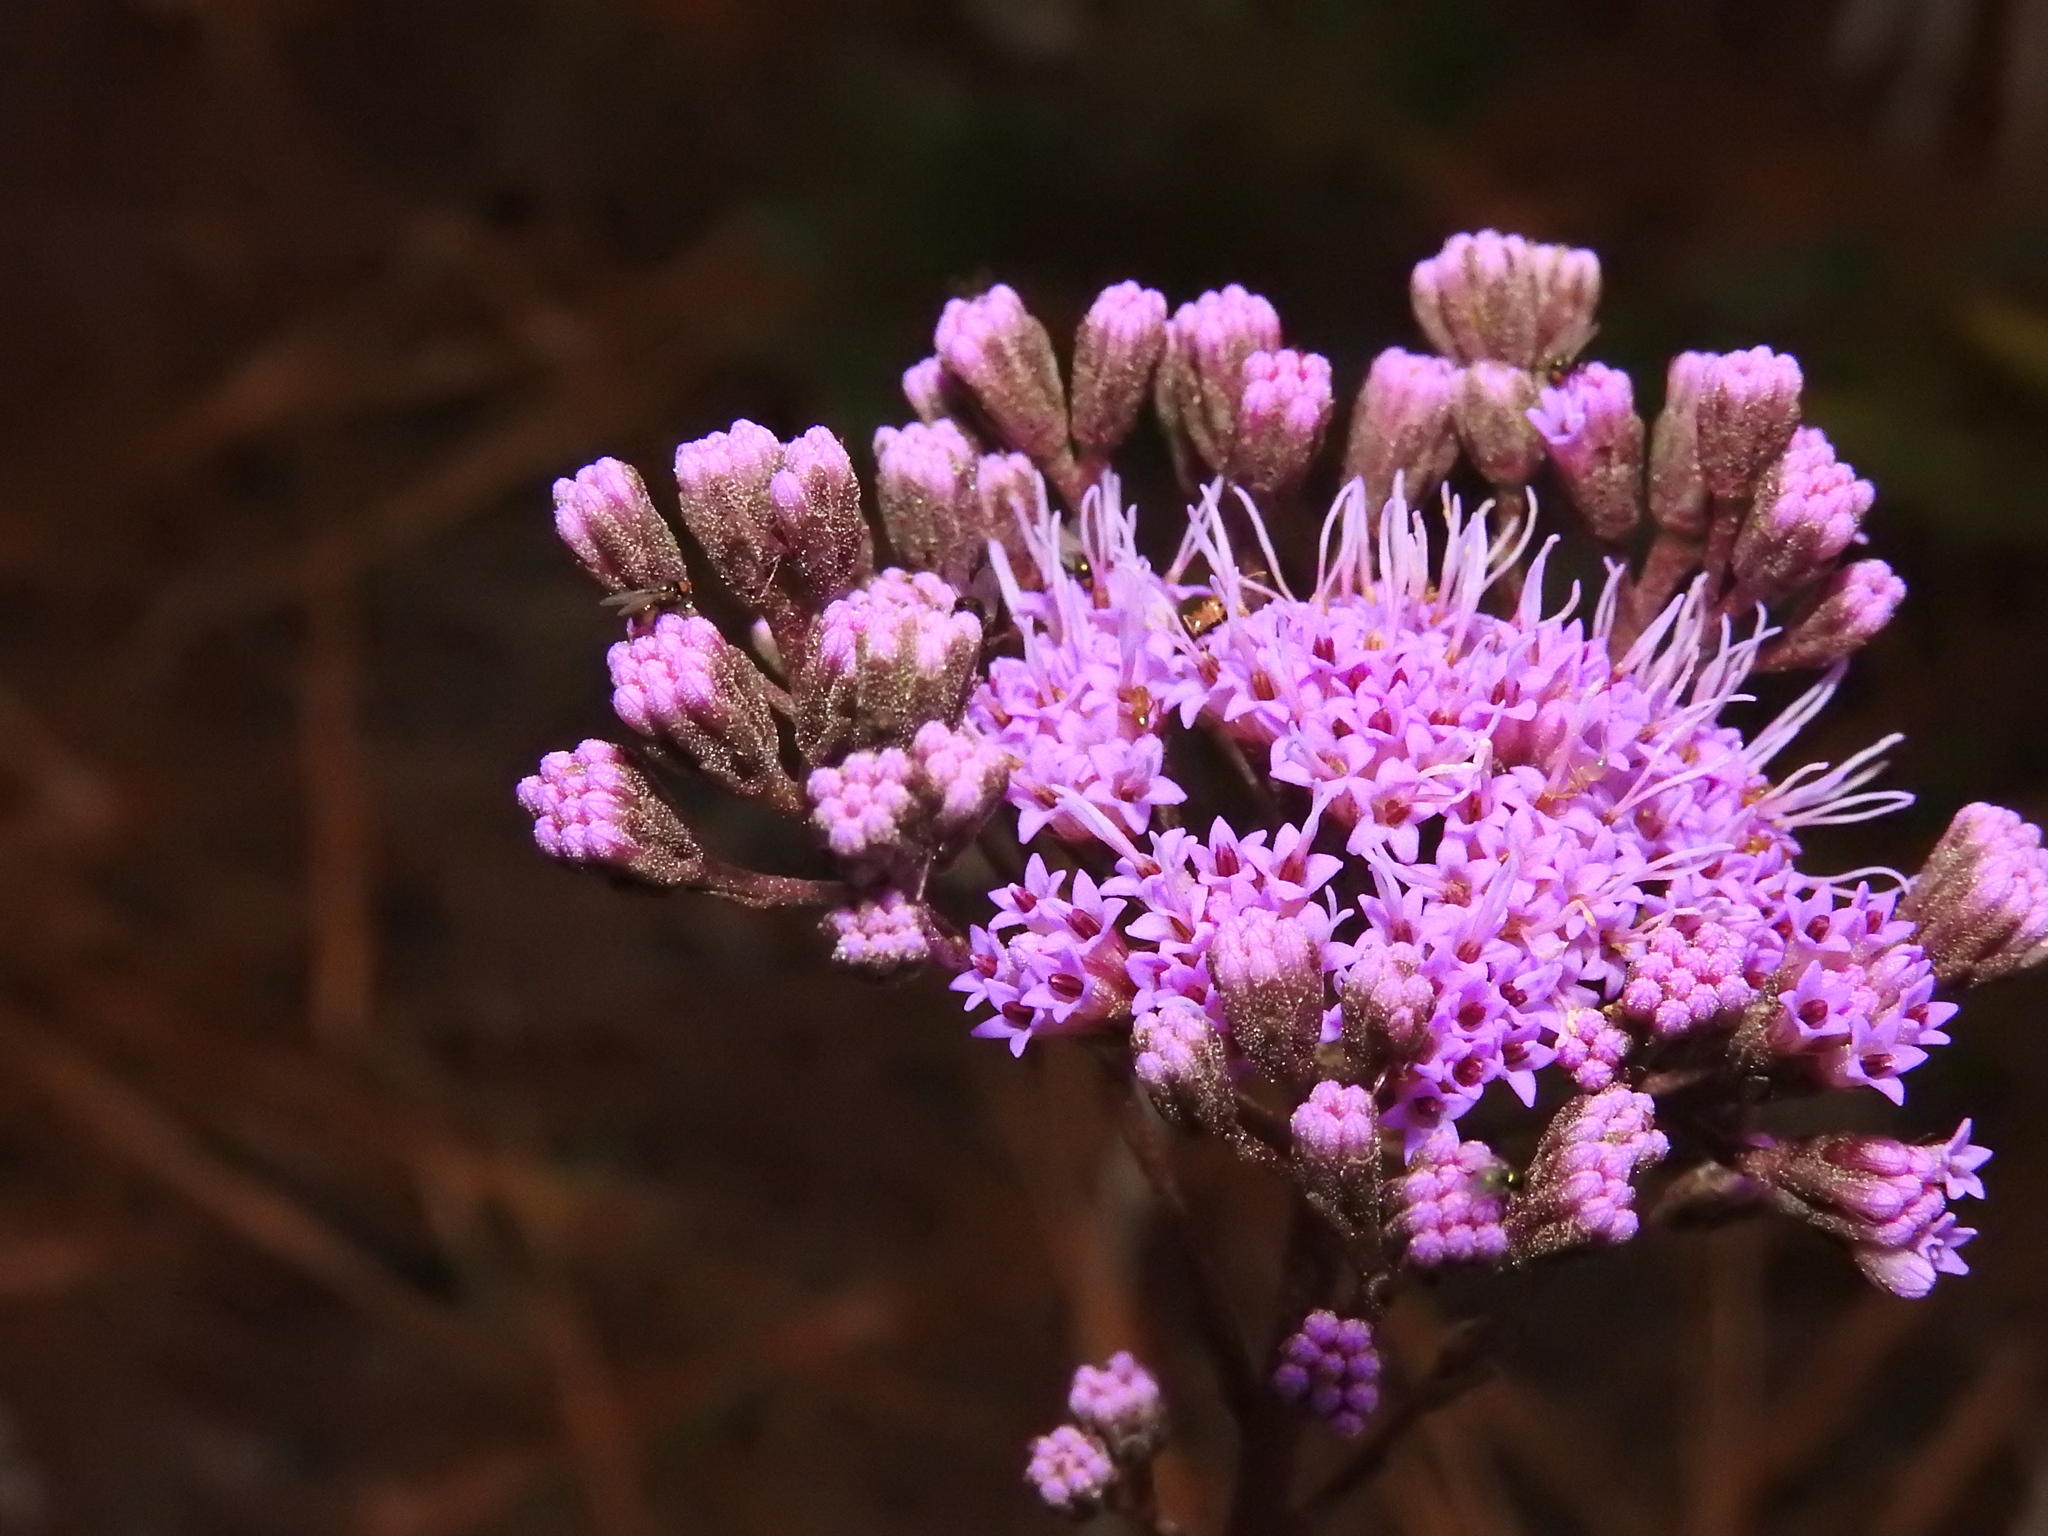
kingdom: Plantae
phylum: Tracheophyta
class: Magnoliopsida
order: Asterales
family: Asteraceae
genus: Carphephorus
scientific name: Carphephorus odoratissimus
